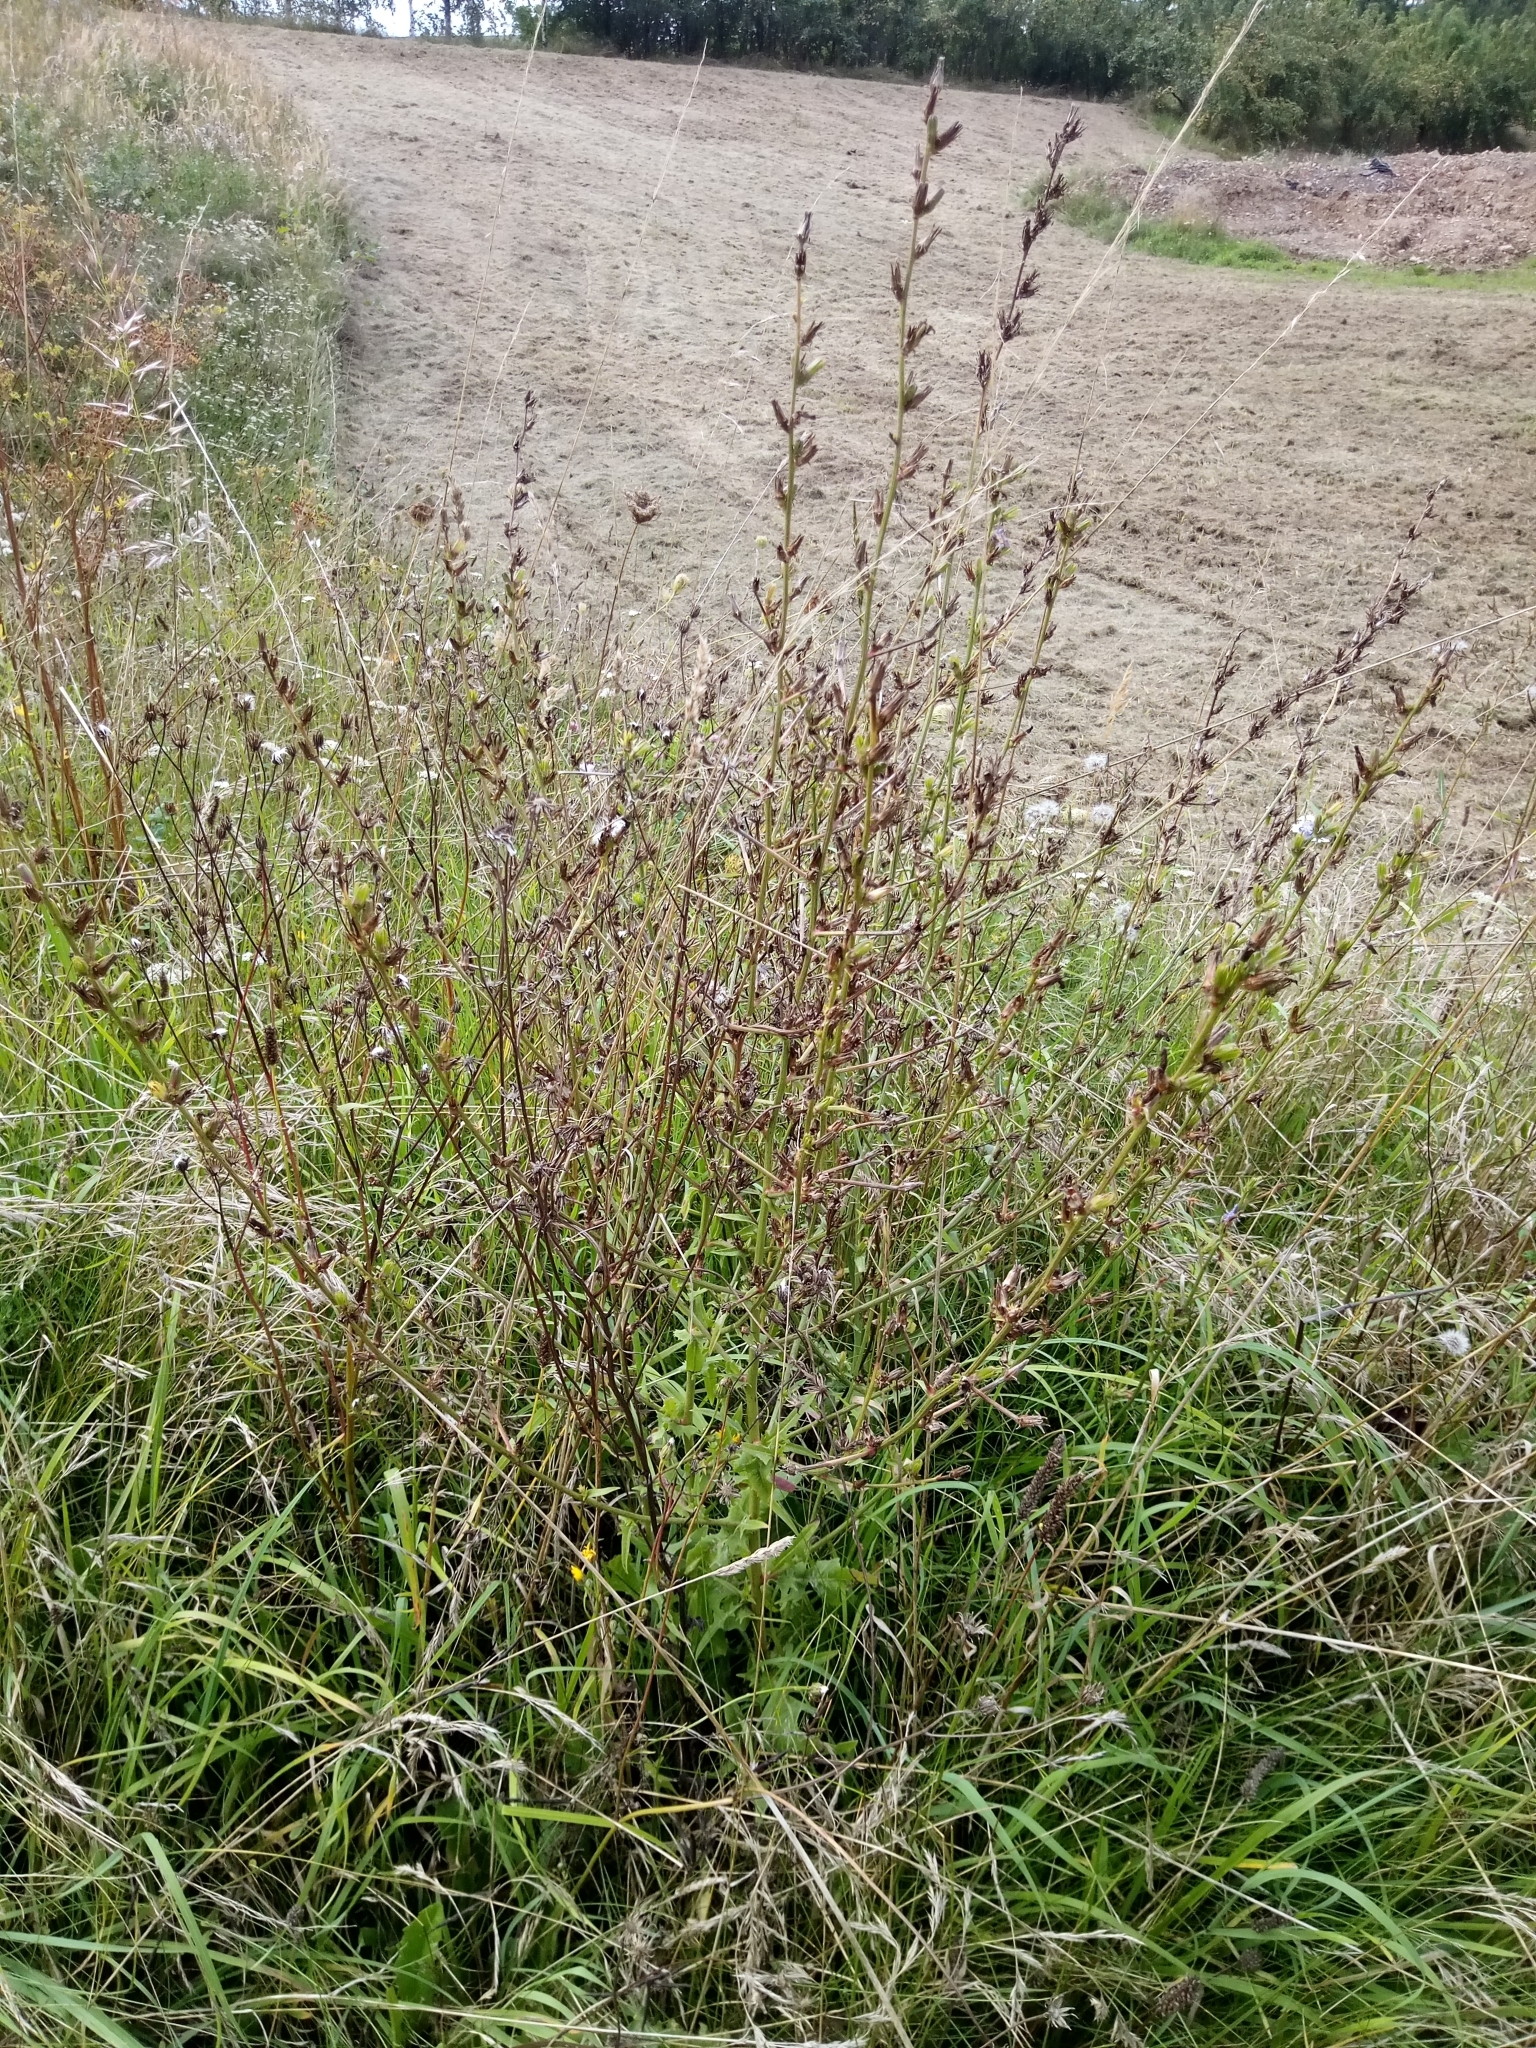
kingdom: Plantae
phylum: Tracheophyta
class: Magnoliopsida
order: Asterales
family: Asteraceae
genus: Cichorium
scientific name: Cichorium intybus
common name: Chicory
